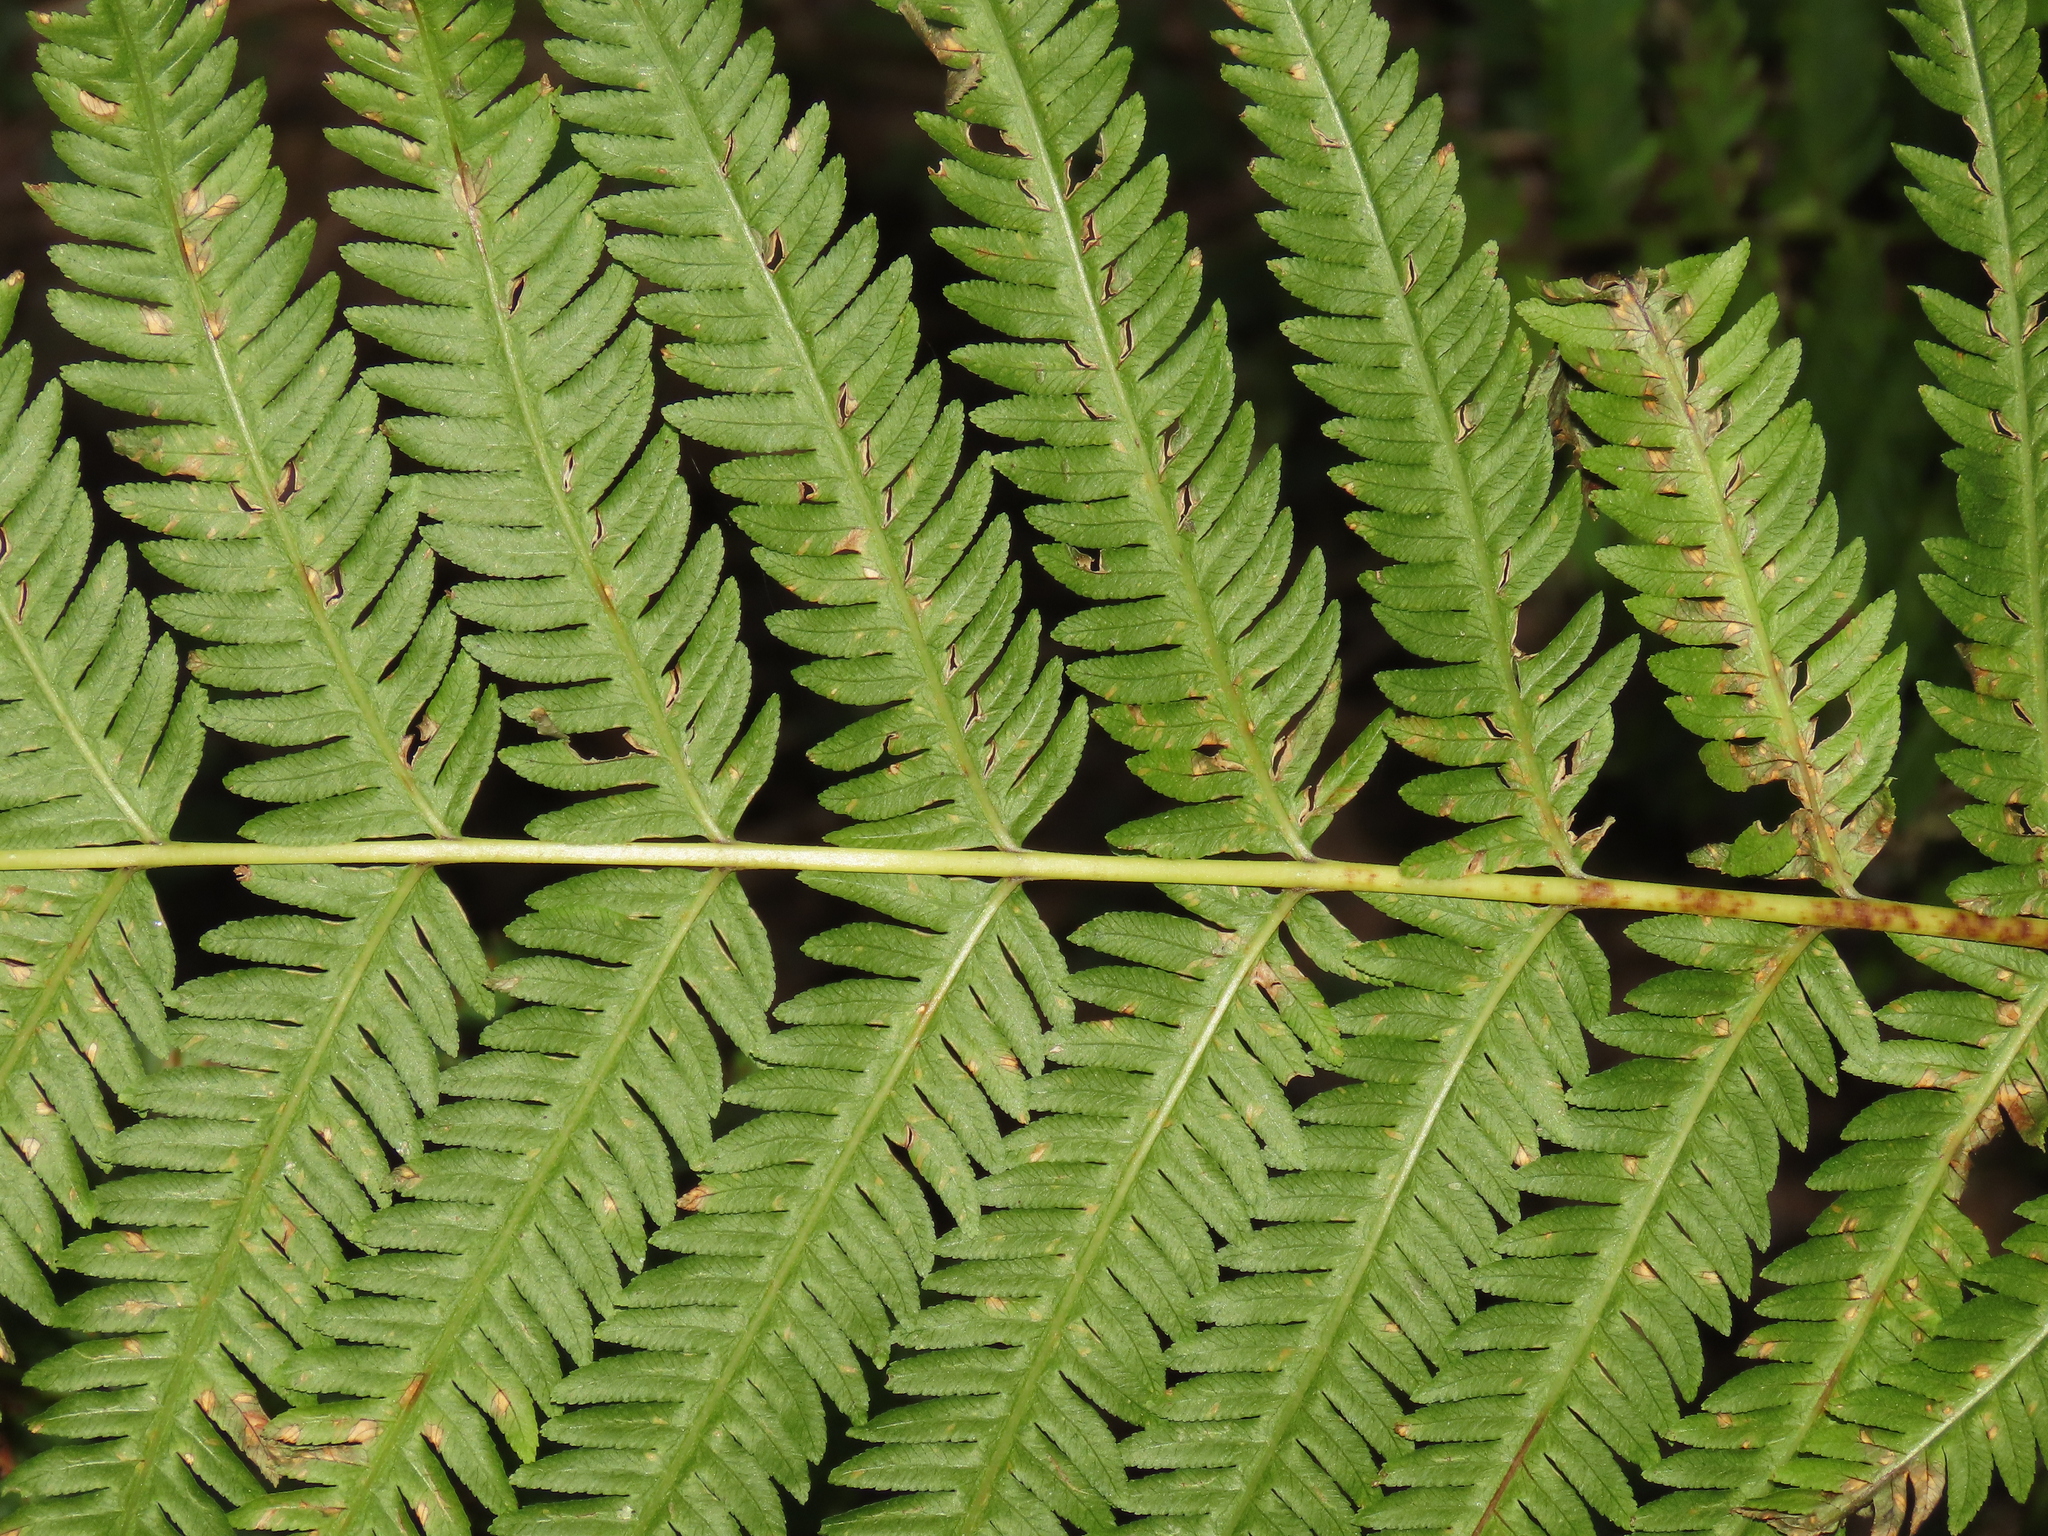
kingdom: Plantae
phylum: Tracheophyta
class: Polypodiopsida
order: Polypodiales
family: Pteridaceae
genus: Pteris
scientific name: Pteris wallichiana
